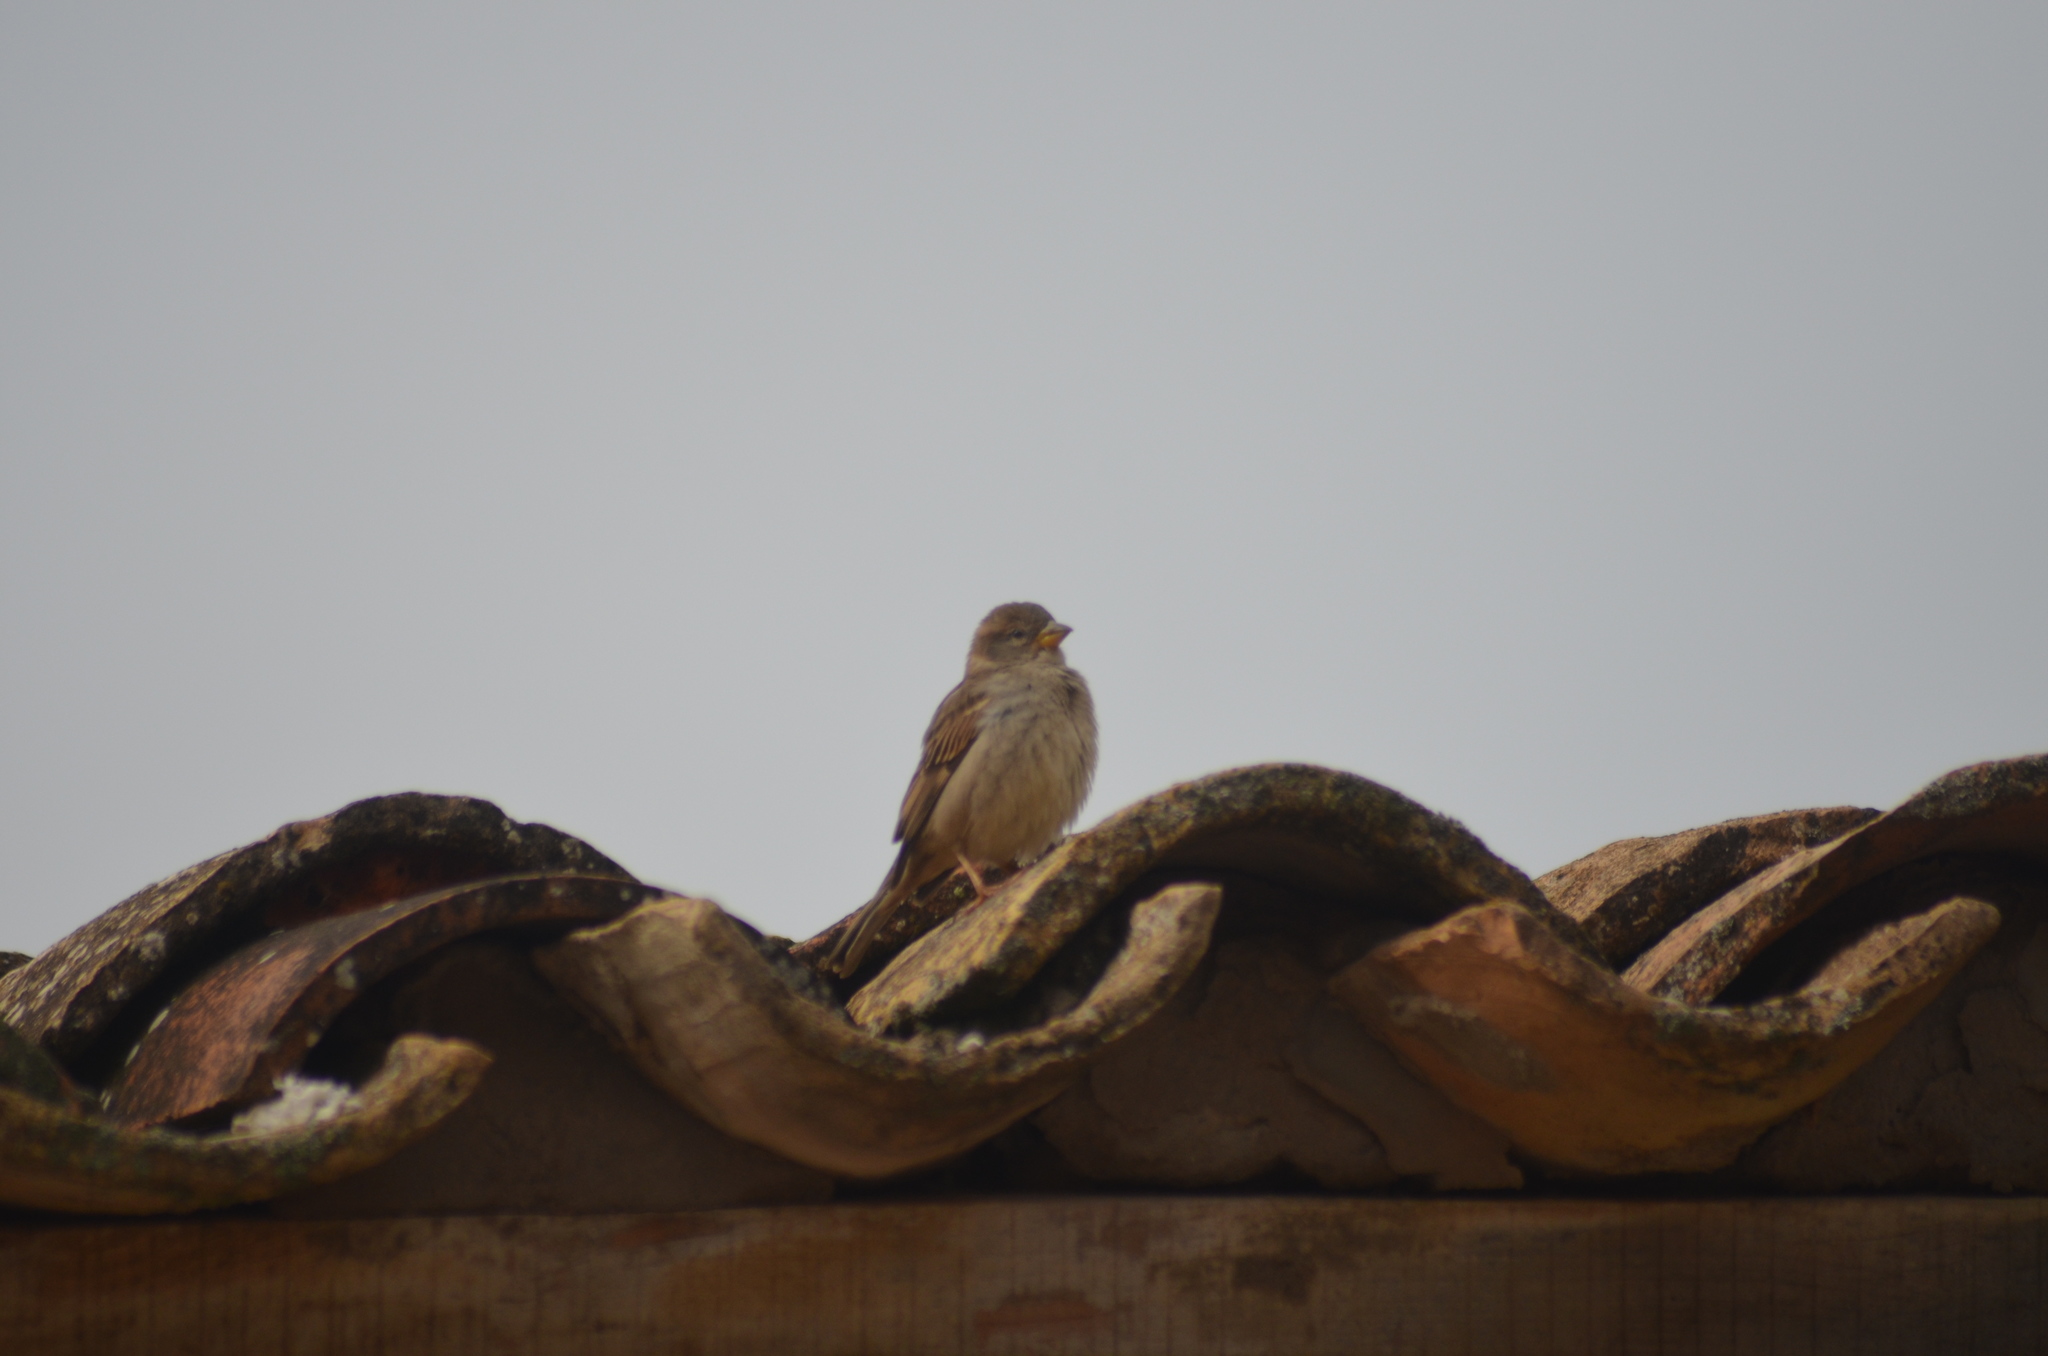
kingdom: Animalia
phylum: Chordata
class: Aves
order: Passeriformes
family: Passeridae
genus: Passer
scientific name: Passer domesticus
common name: House sparrow
